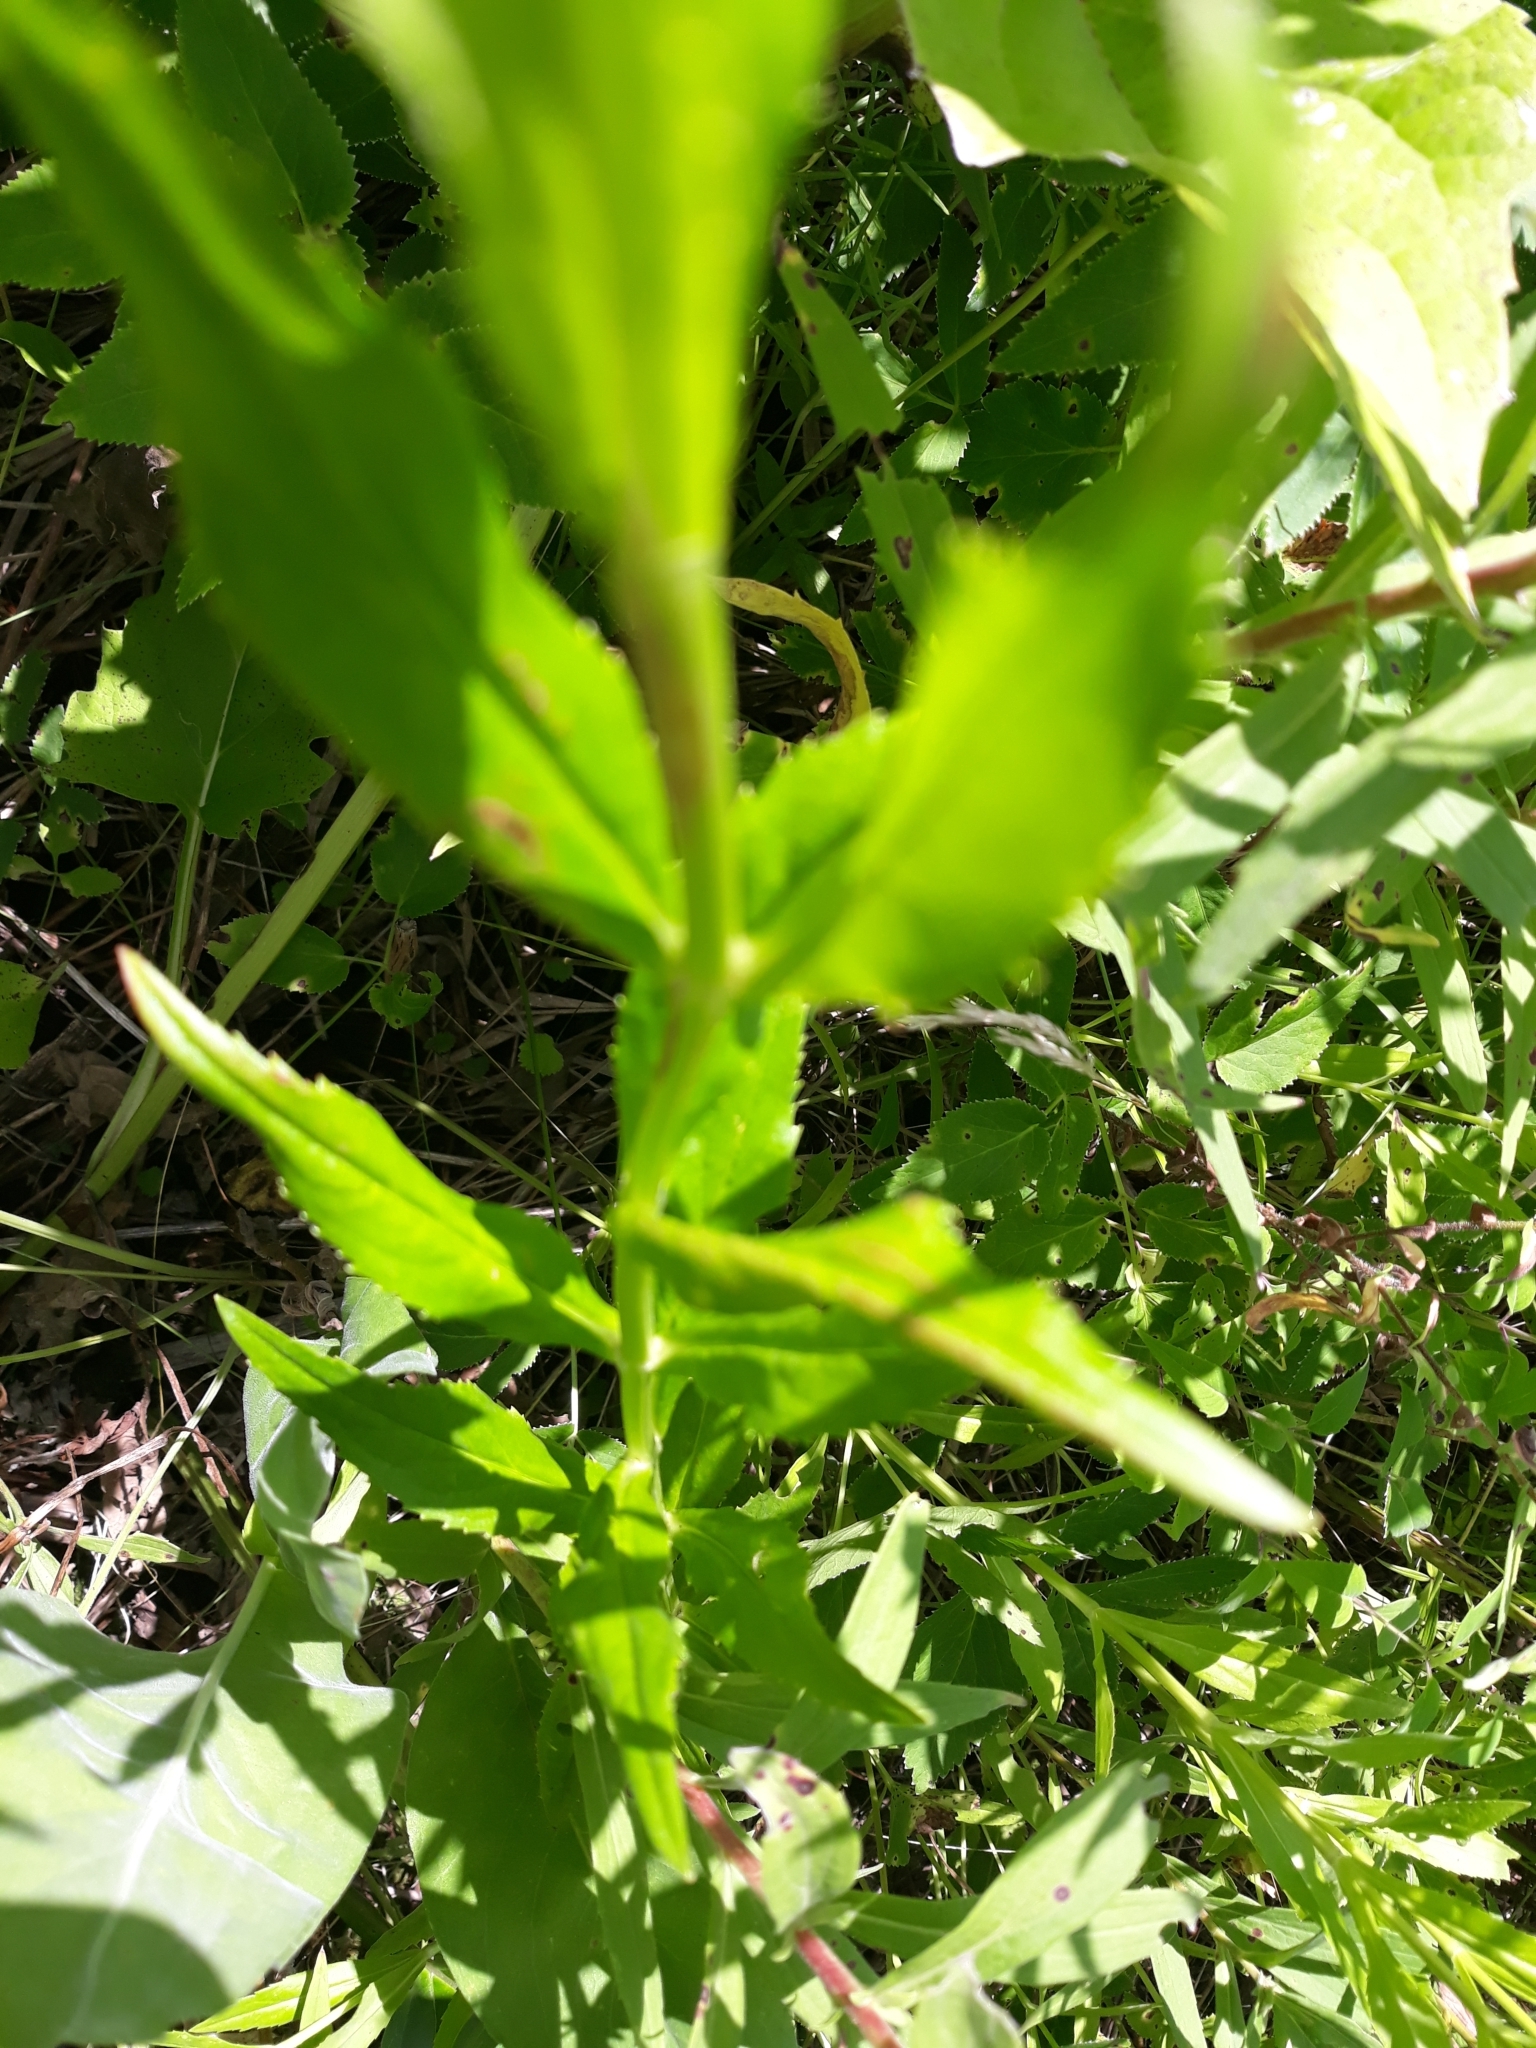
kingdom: Plantae
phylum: Tracheophyta
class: Magnoliopsida
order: Lamiales
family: Lamiaceae
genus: Physostegia
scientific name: Physostegia virginiana
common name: Obedient-plant
